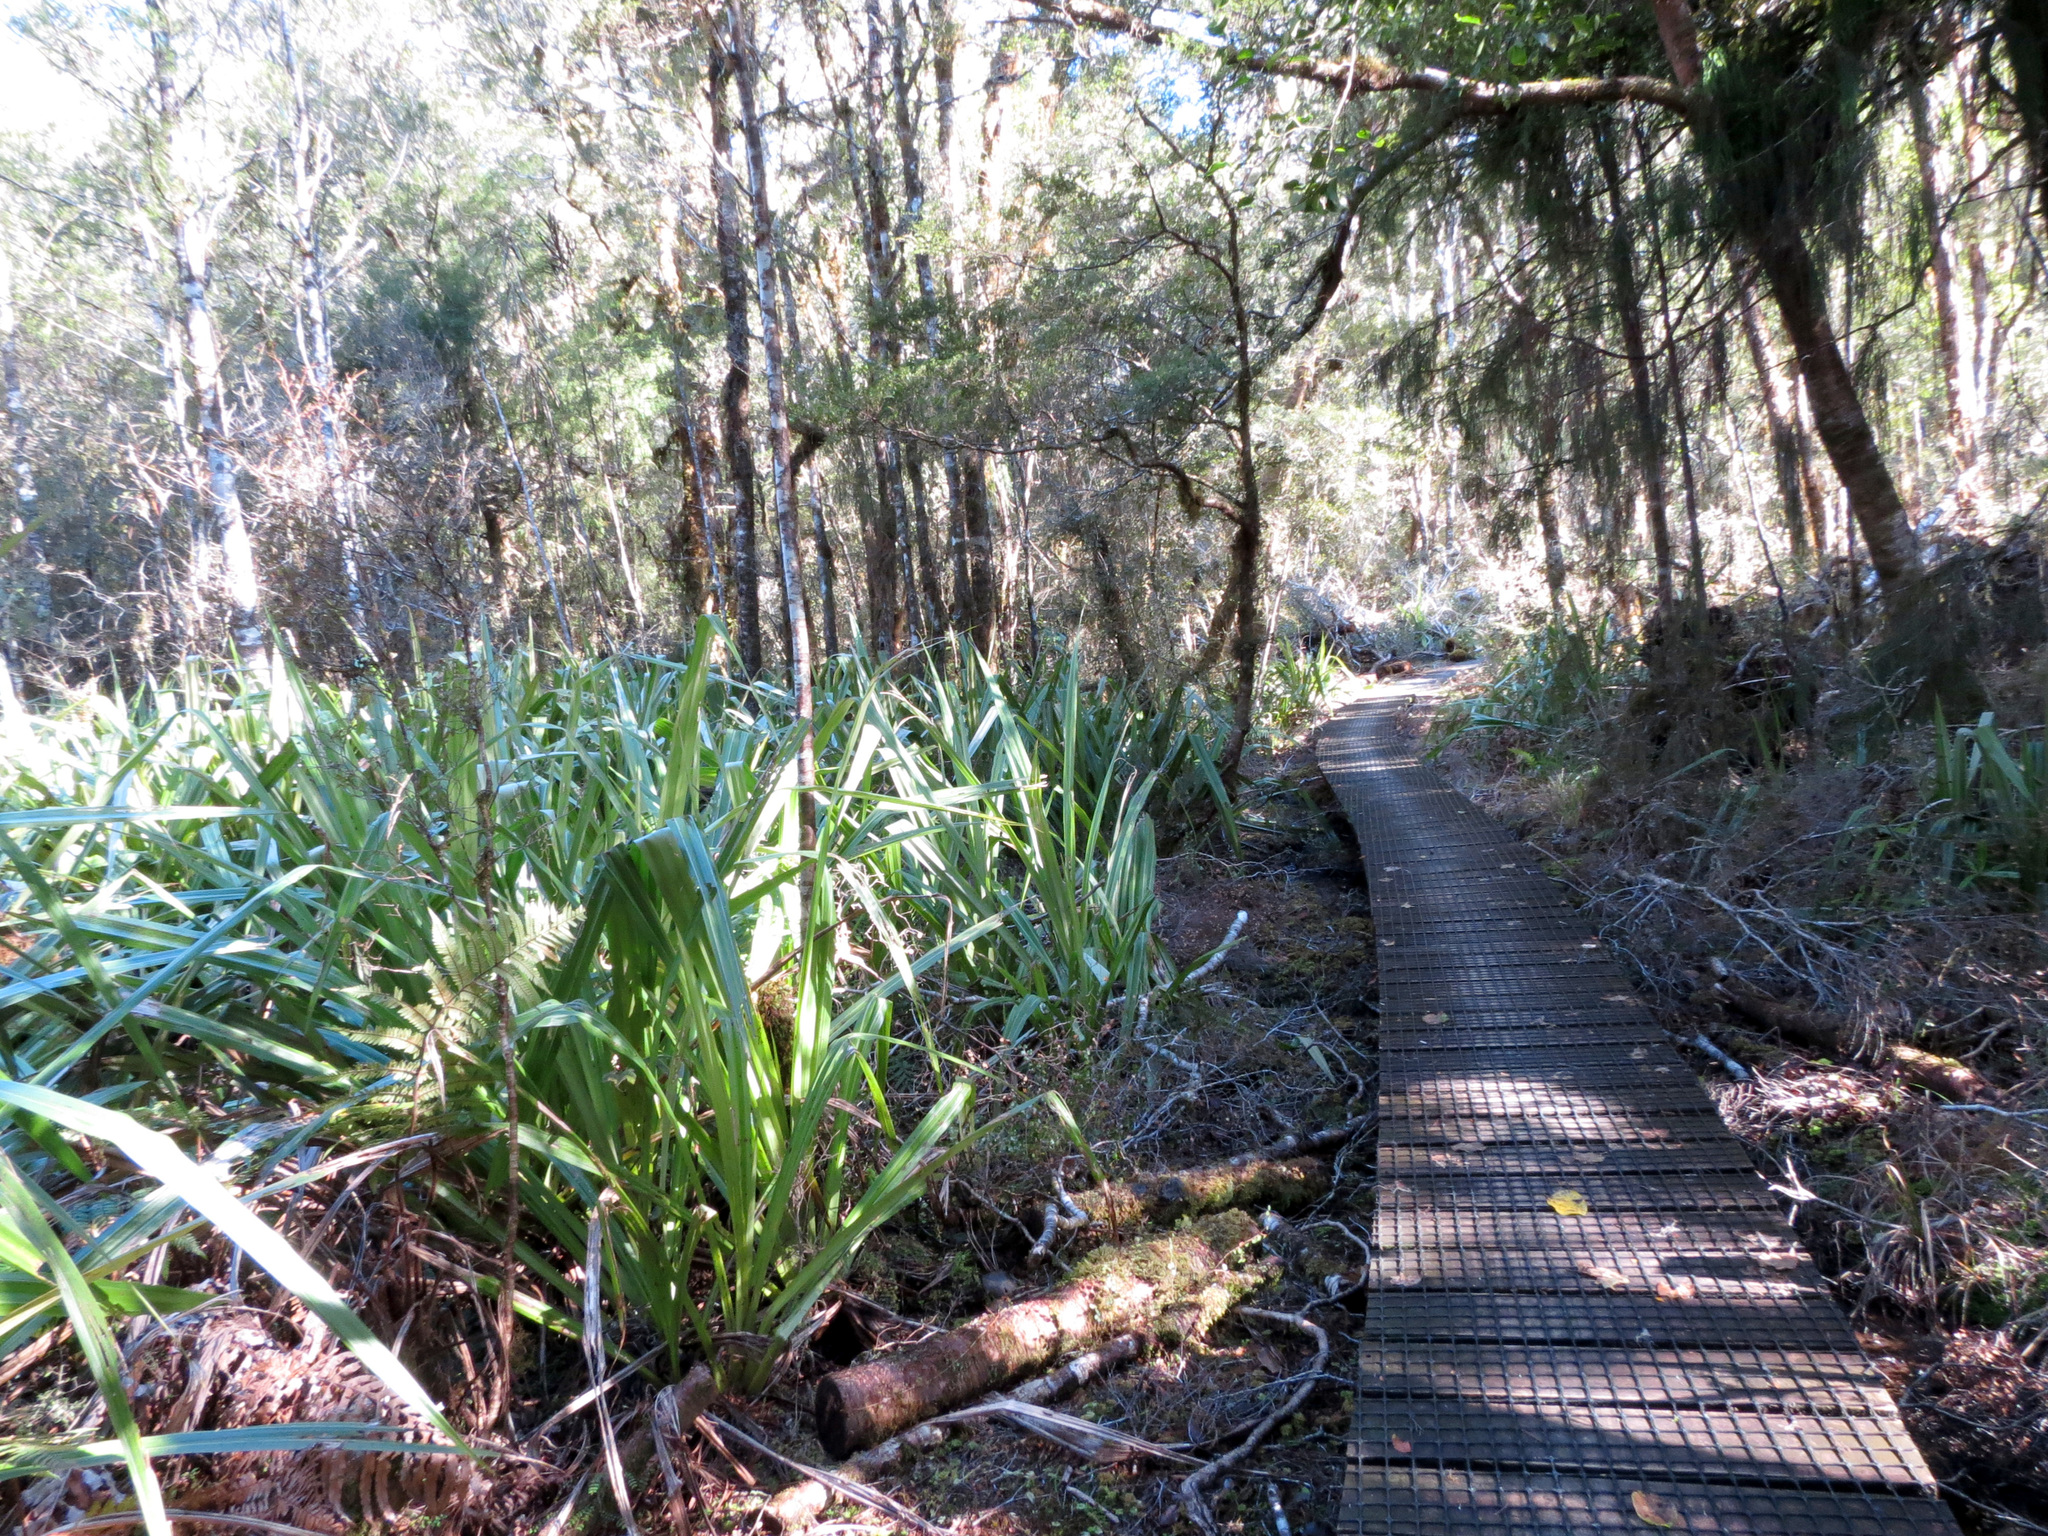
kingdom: Plantae
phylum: Tracheophyta
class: Liliopsida
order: Asparagales
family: Asteliaceae
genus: Astelia
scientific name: Astelia fragrans
